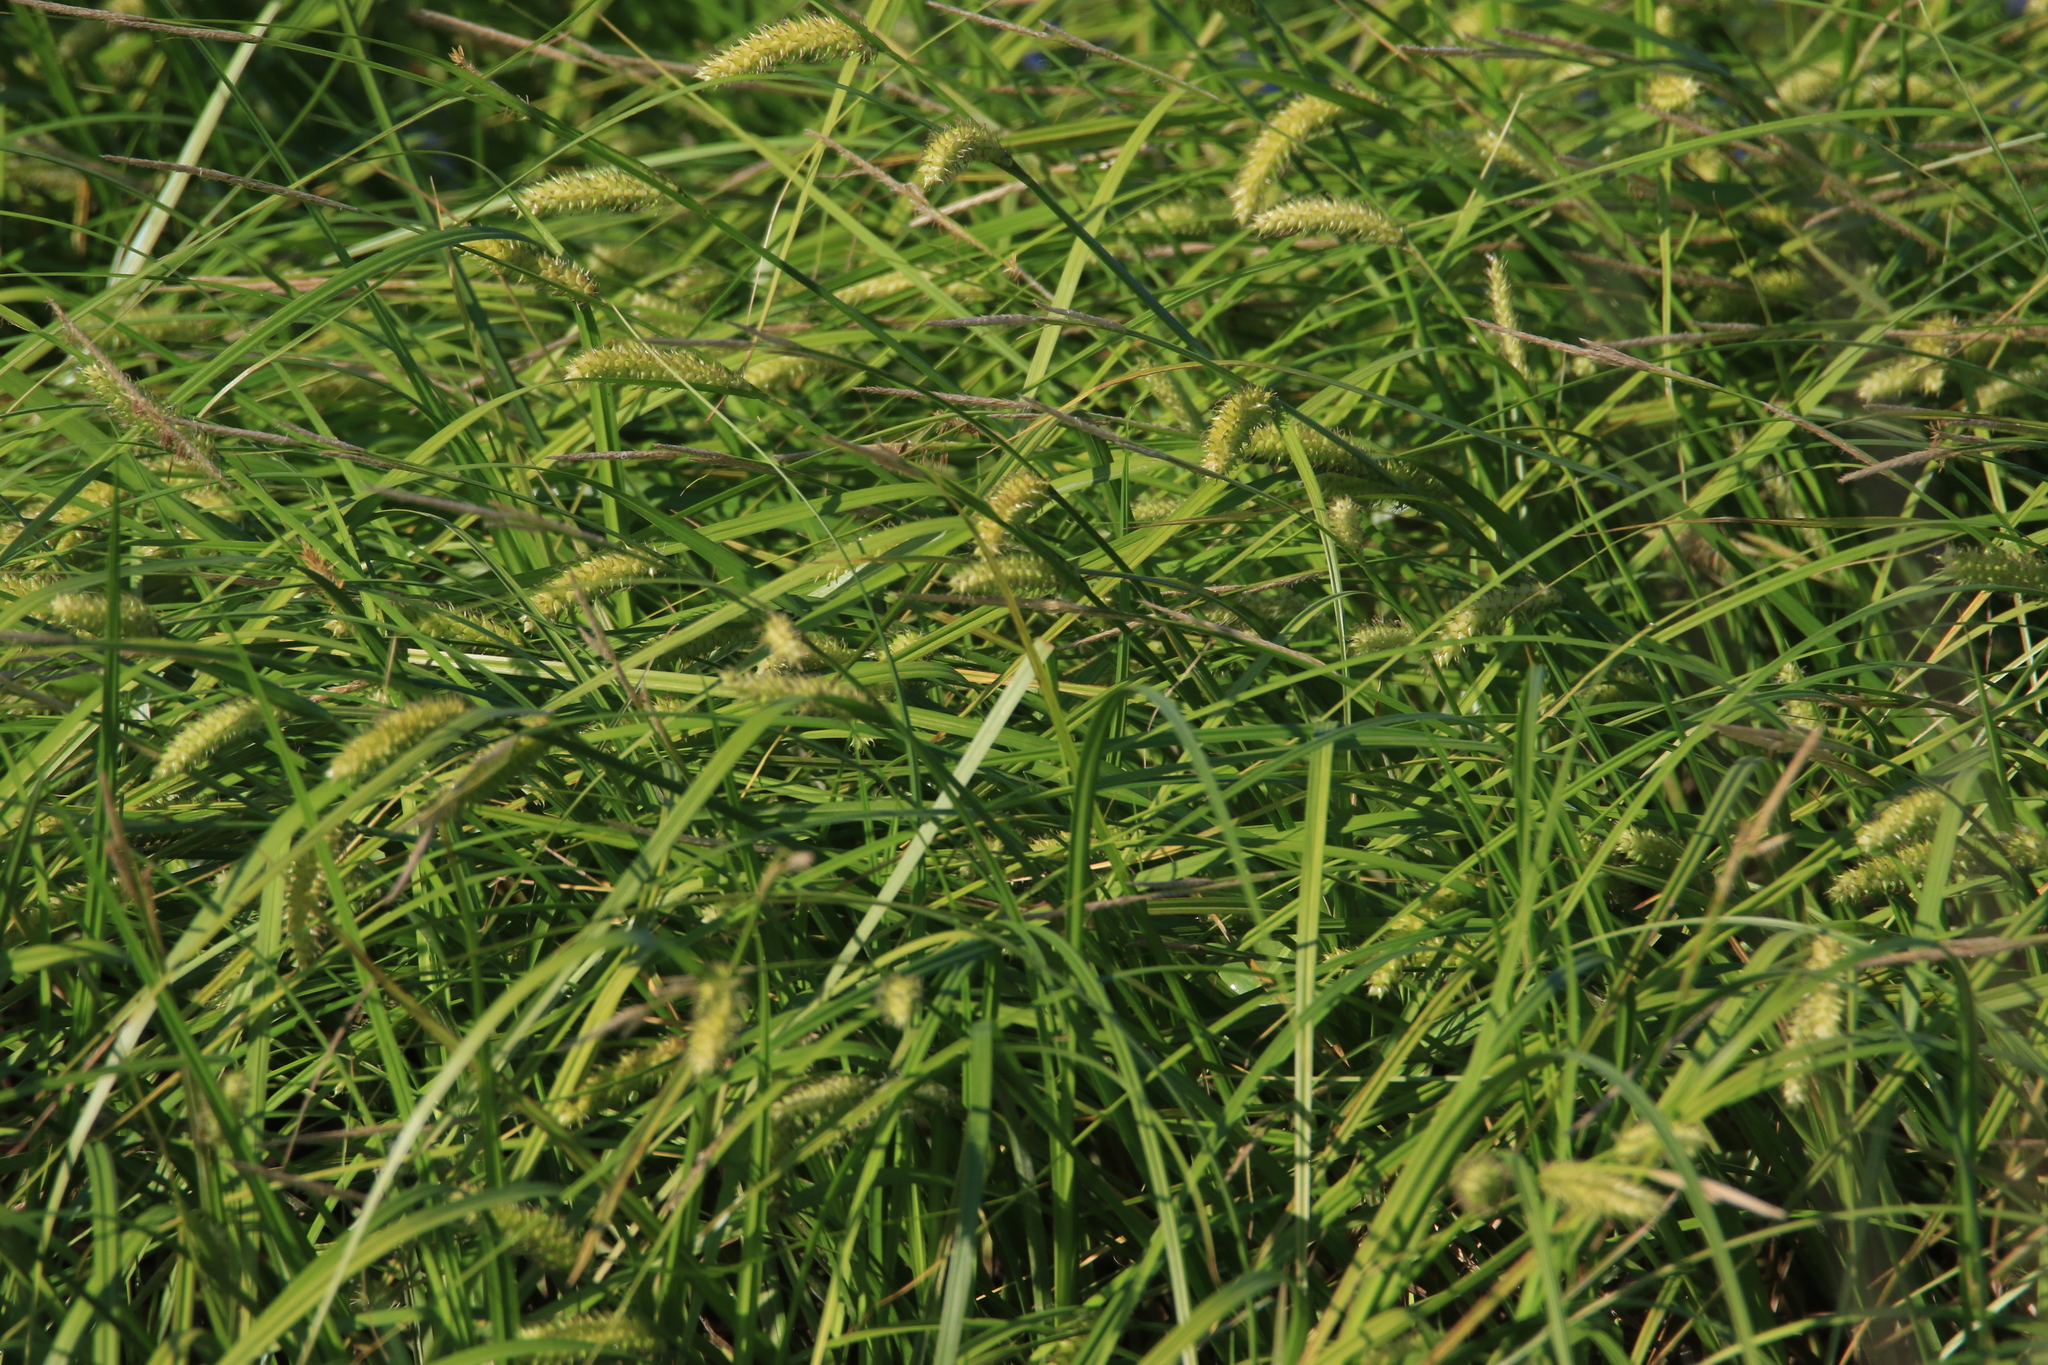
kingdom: Plantae
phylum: Tracheophyta
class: Liliopsida
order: Poales
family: Cyperaceae
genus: Carex
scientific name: Carex vesicaria
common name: Bladder-sedge
